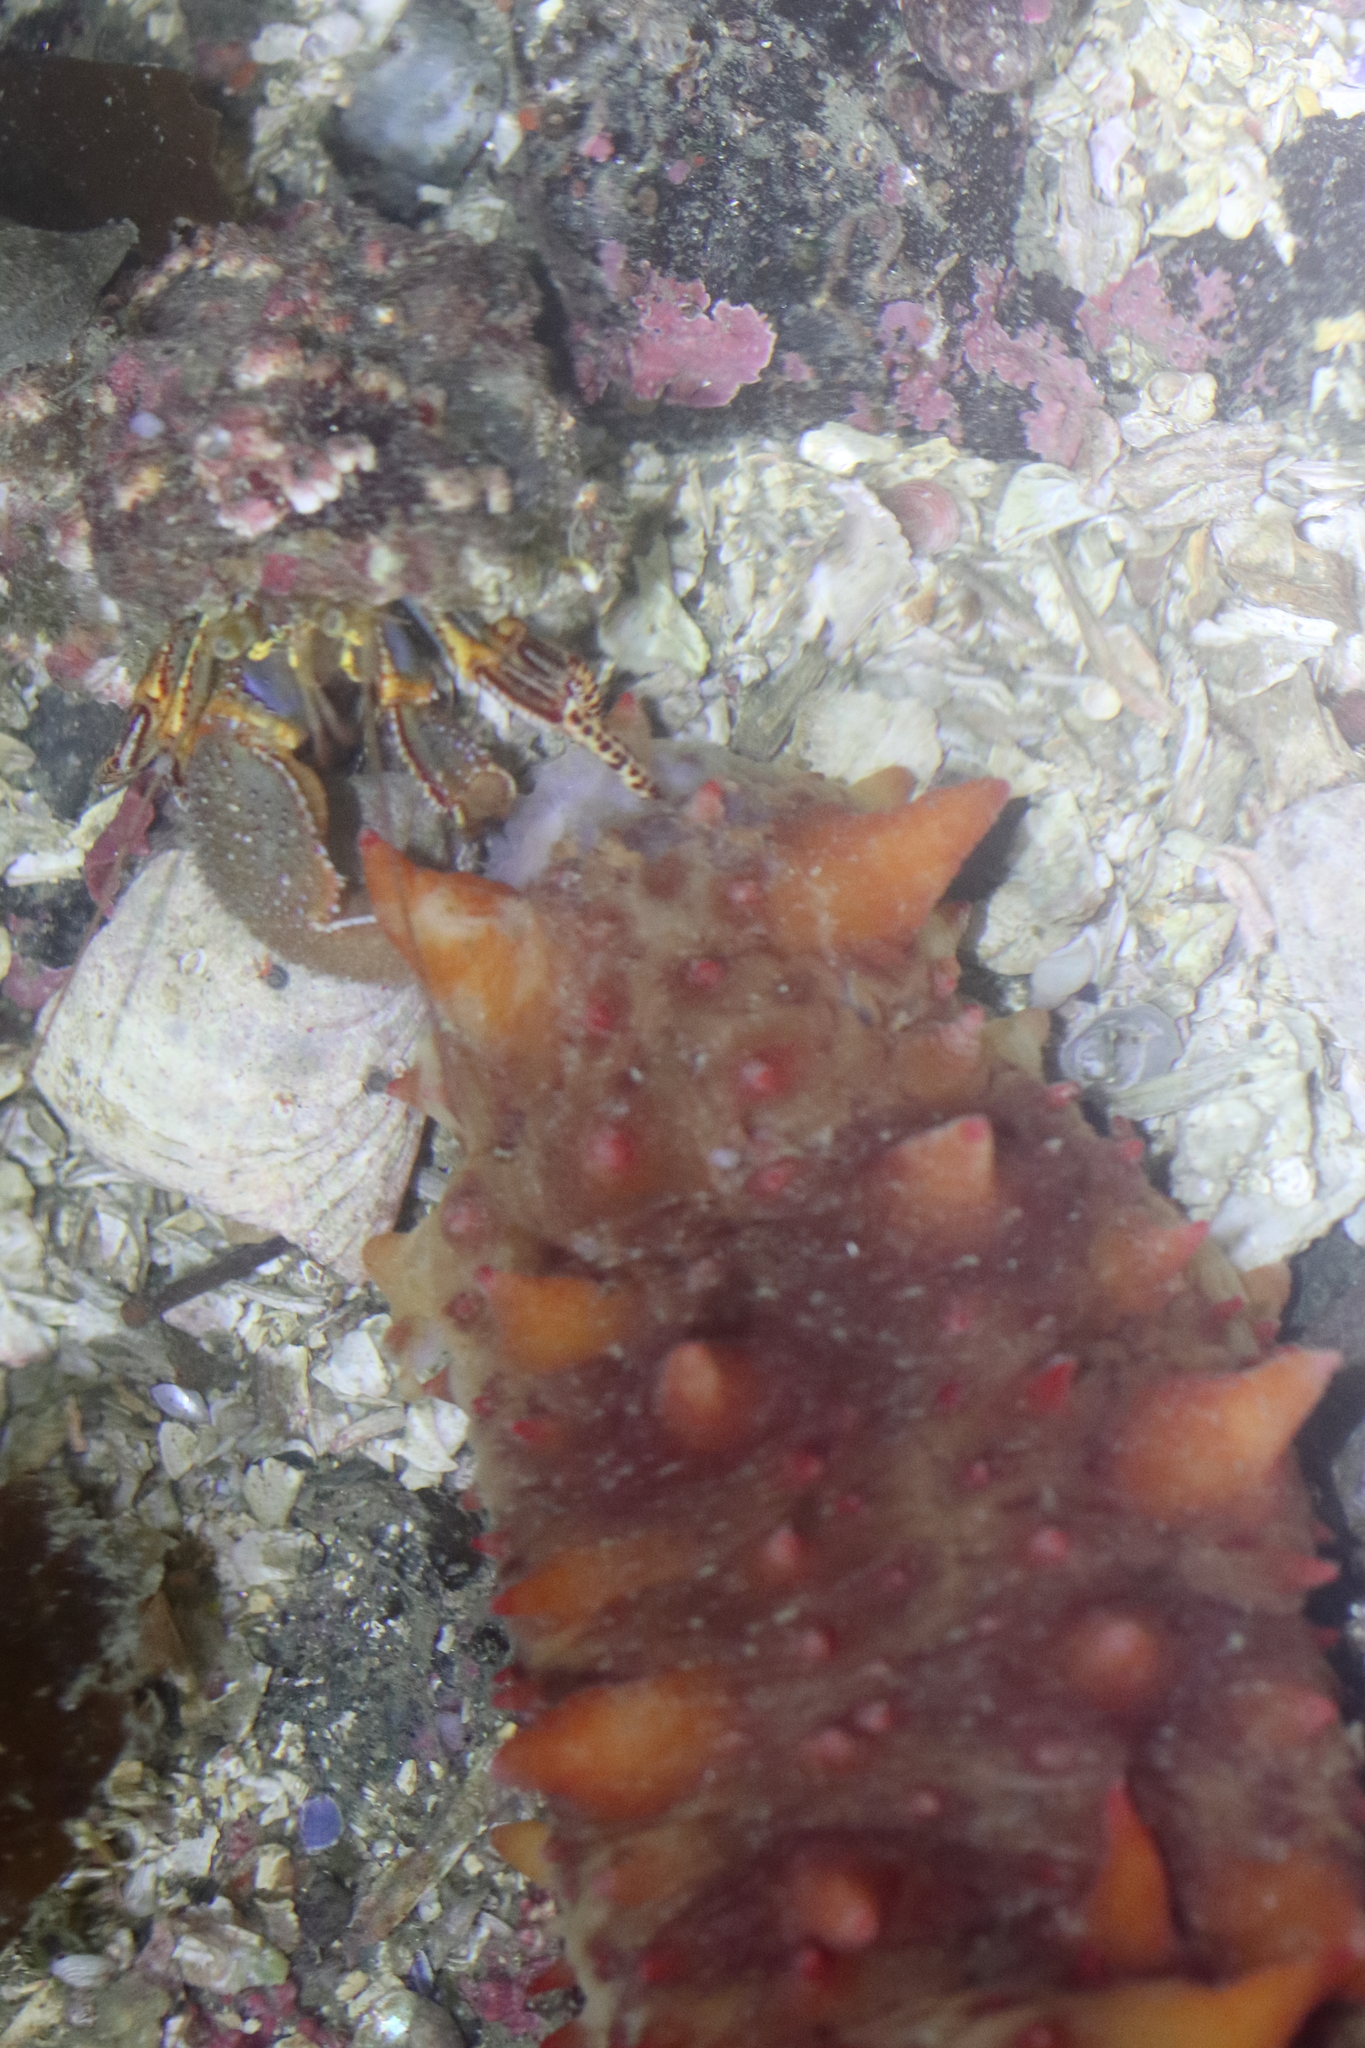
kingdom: Animalia
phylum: Echinodermata
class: Holothuroidea
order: Synallactida
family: Stichopodidae
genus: Apostichopus
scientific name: Apostichopus californicus
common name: California sea cucumber
